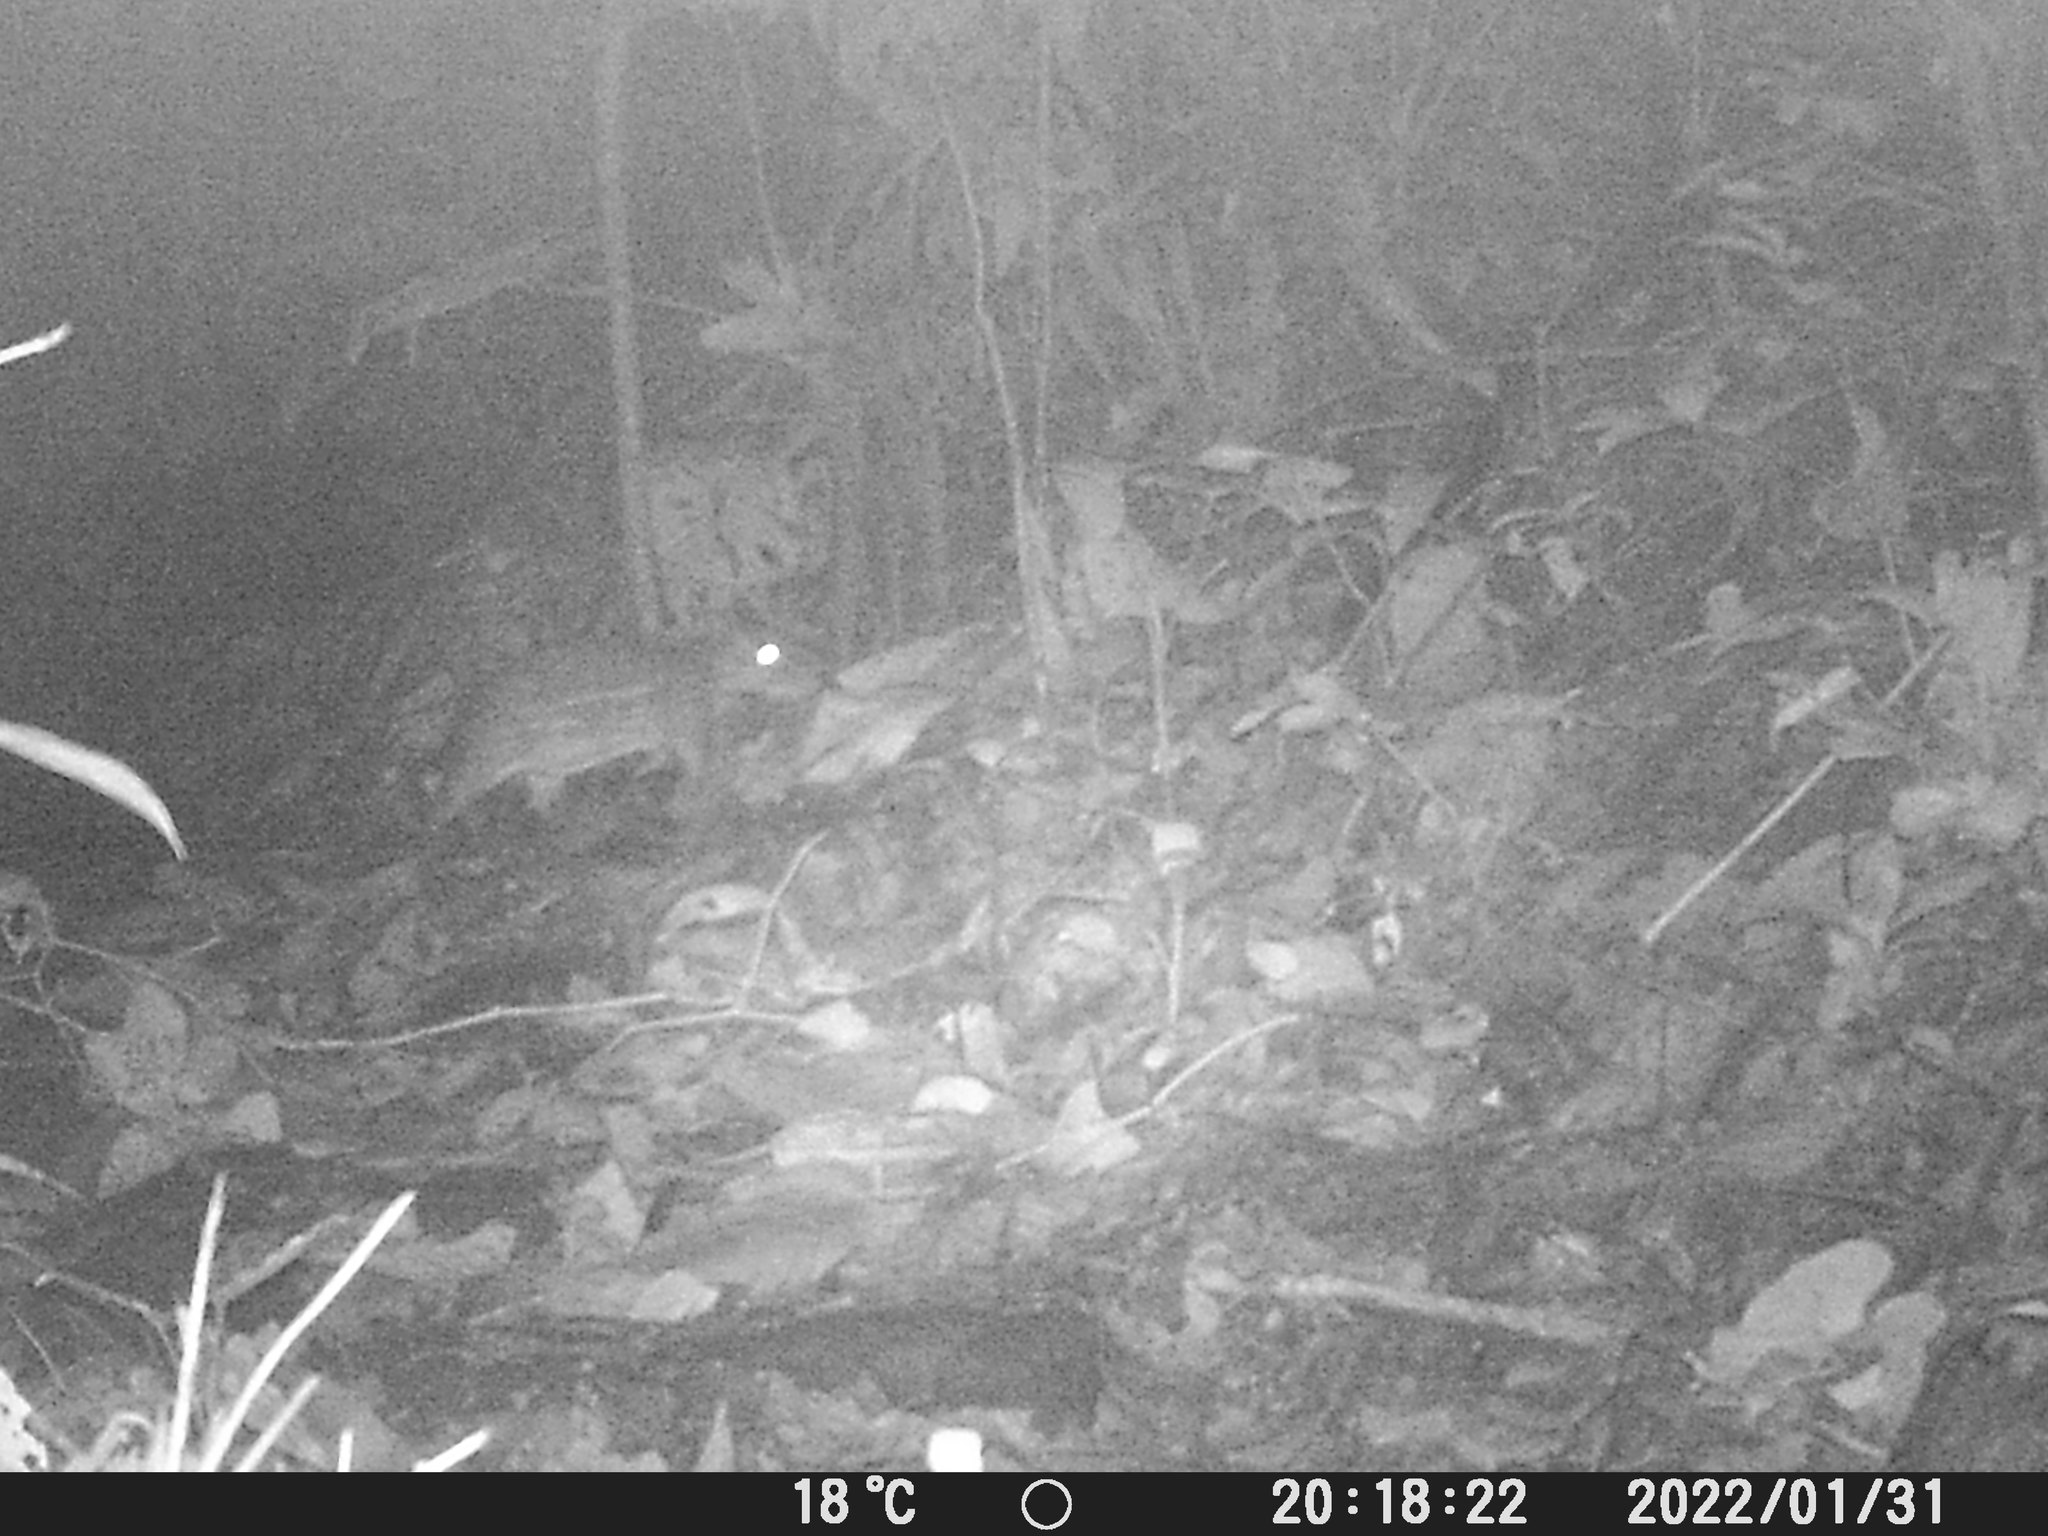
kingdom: Animalia
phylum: Chordata
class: Mammalia
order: Rodentia
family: Cuniculidae
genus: Cuniculus
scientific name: Cuniculus paca
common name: Lowland paca
